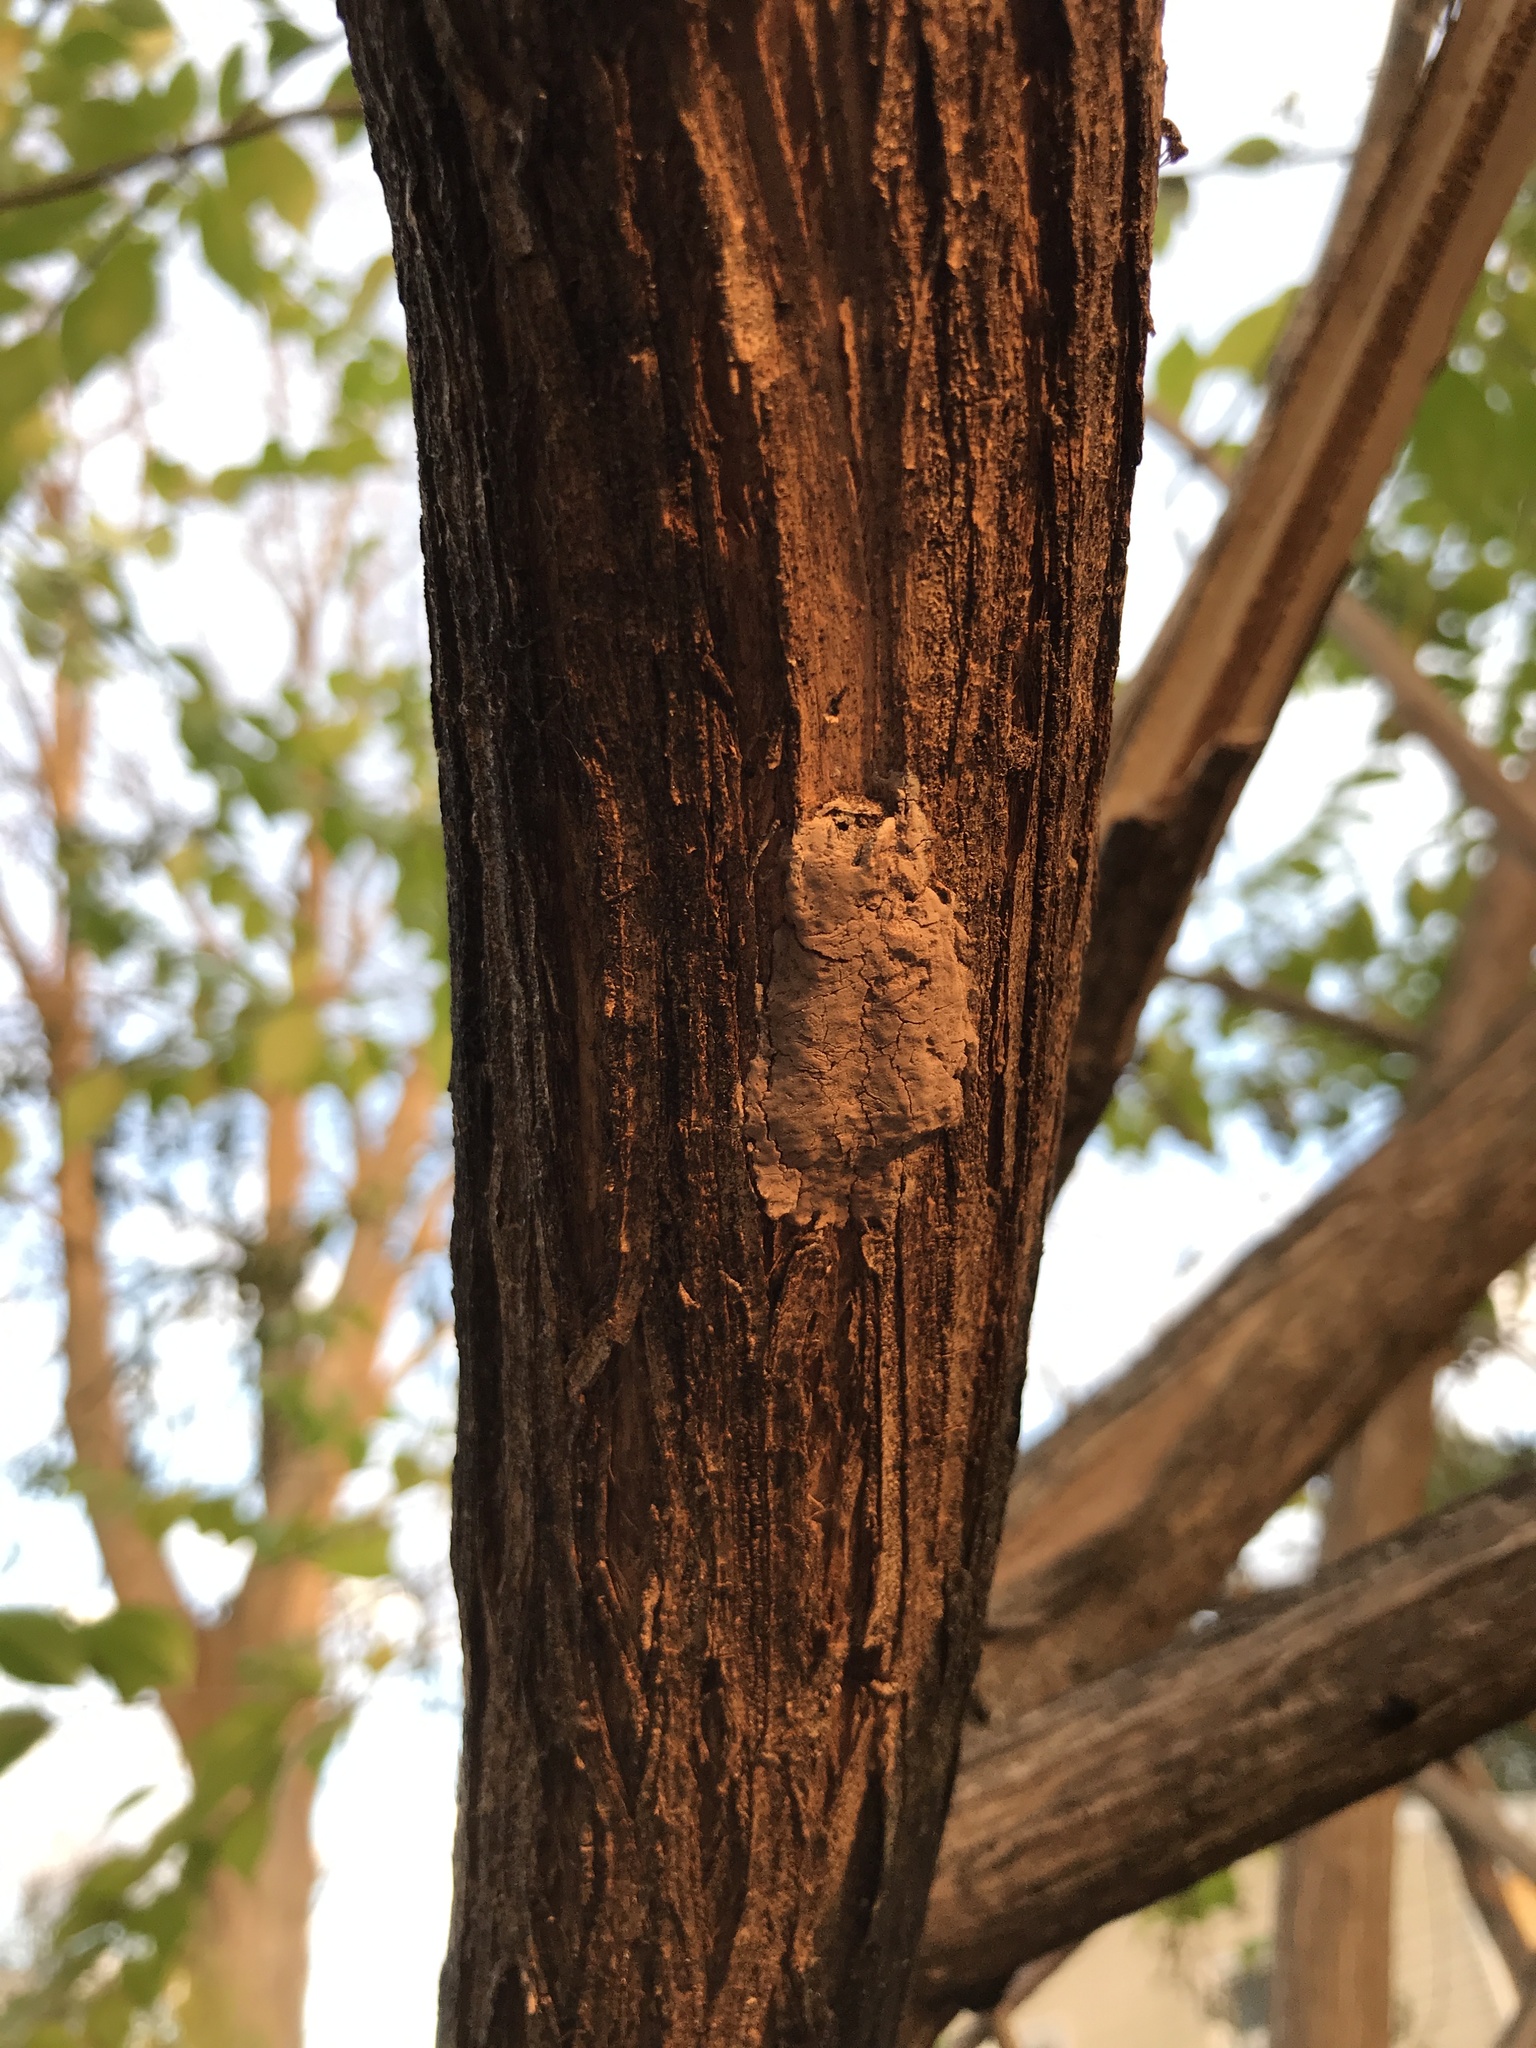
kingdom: Animalia
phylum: Arthropoda
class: Insecta
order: Hemiptera
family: Fulgoridae
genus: Lycorma
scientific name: Lycorma delicatula
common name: Spotted lanternfly
